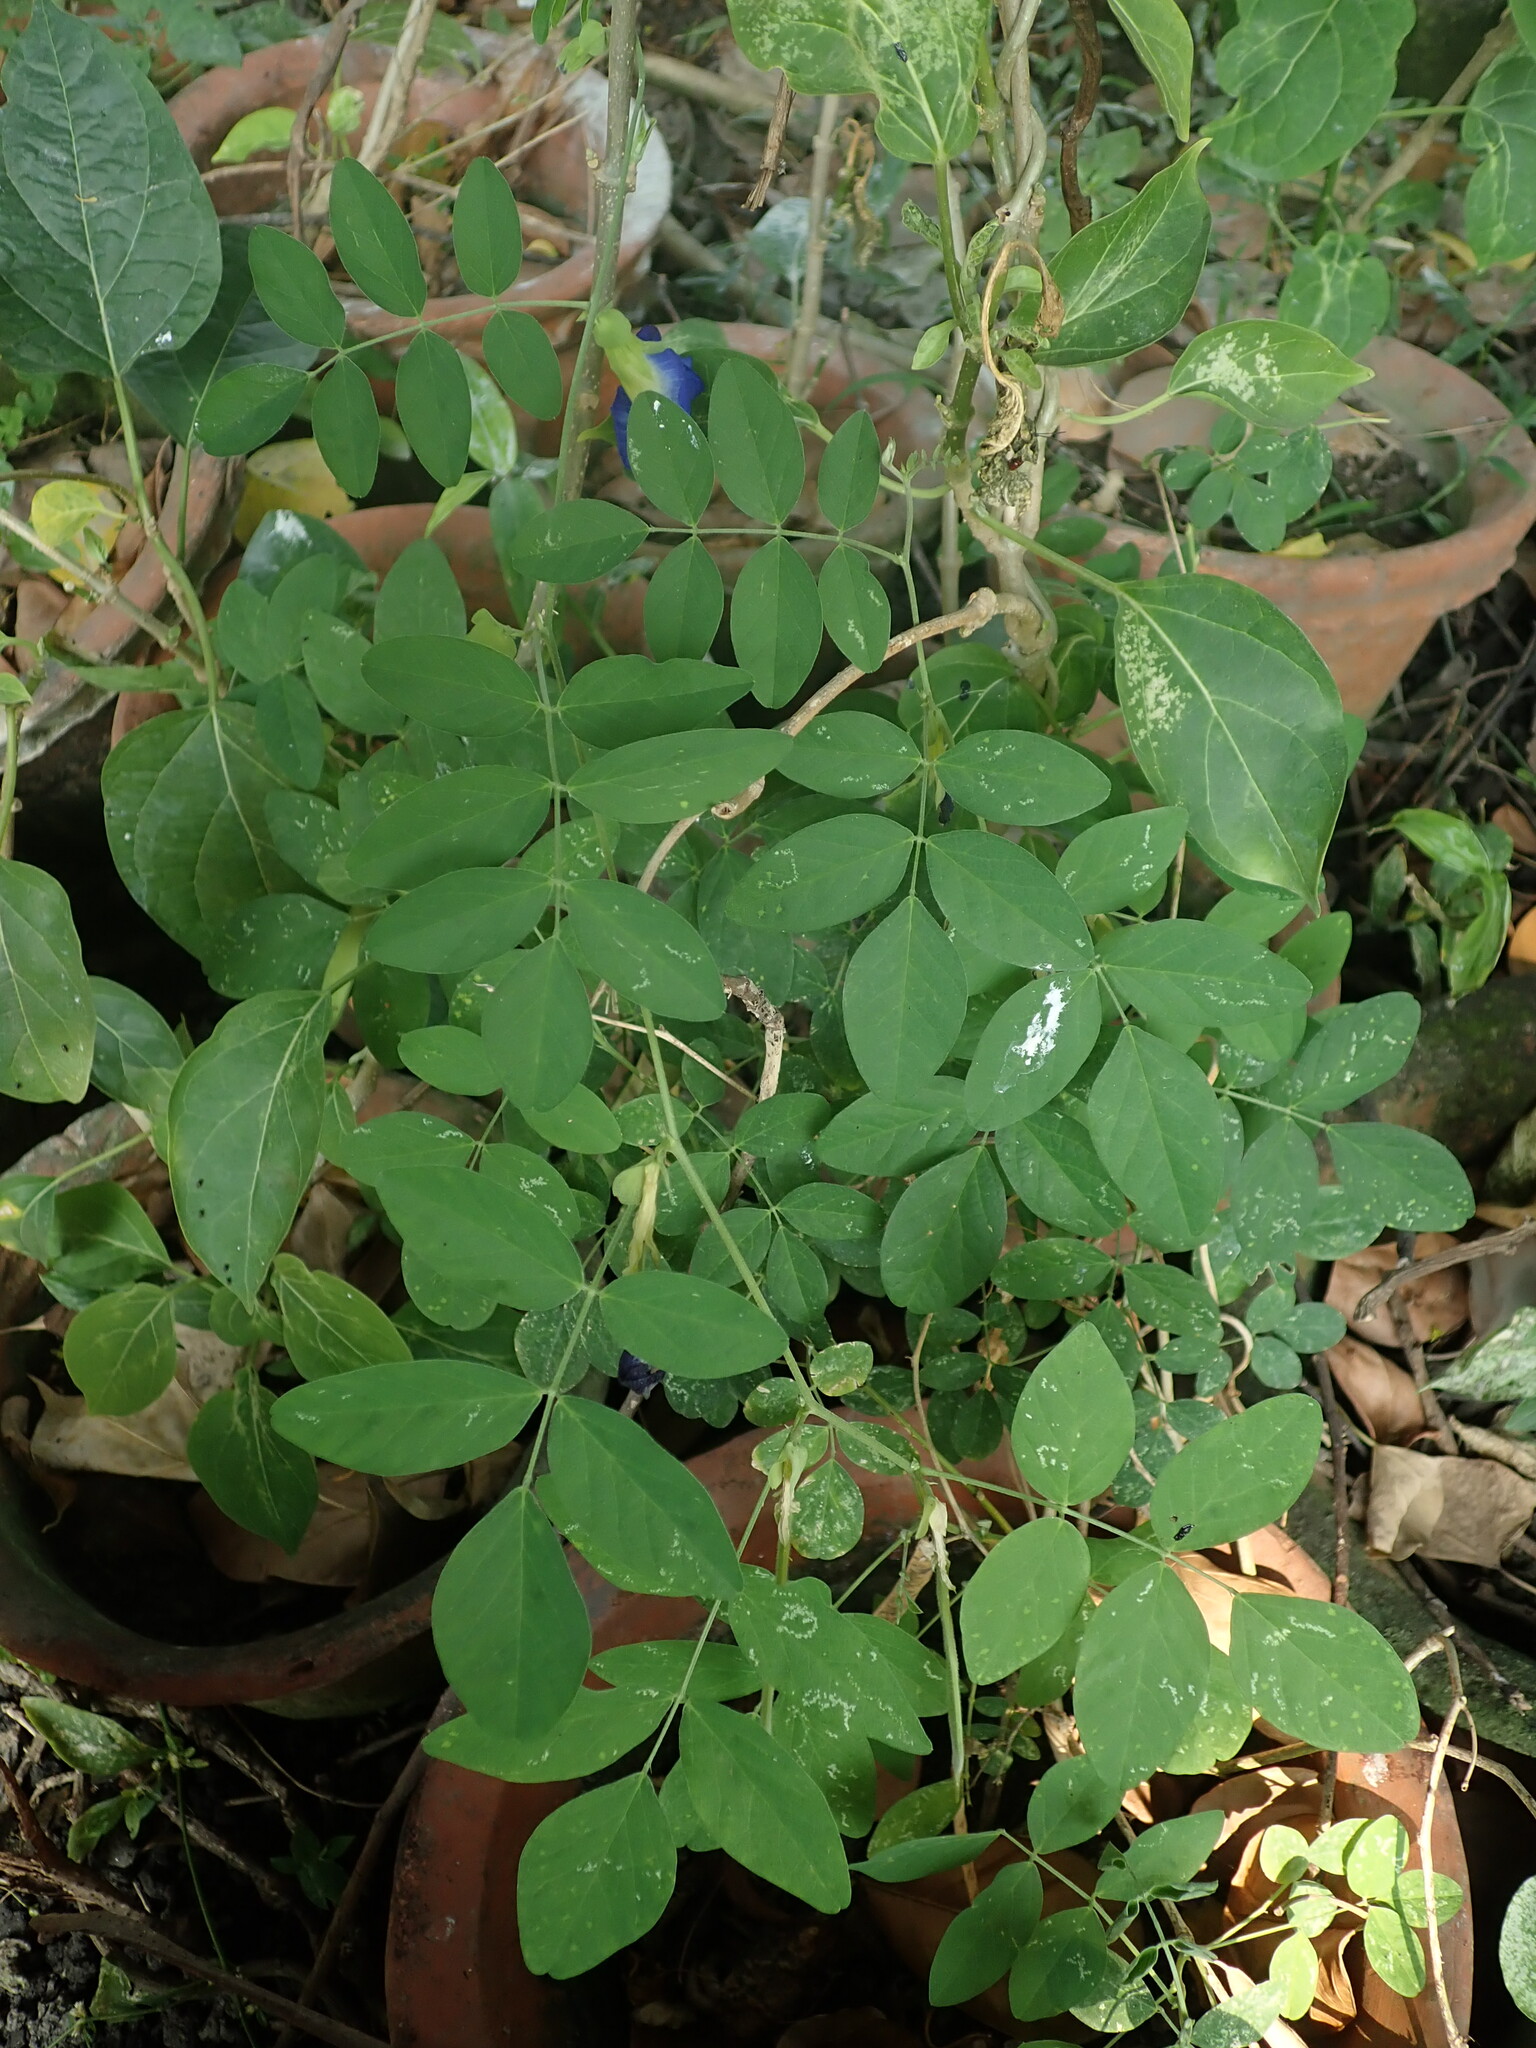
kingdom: Plantae
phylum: Tracheophyta
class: Magnoliopsida
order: Fabales
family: Fabaceae
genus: Clitoria
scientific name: Clitoria ternatea
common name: Asian pigeonwings
